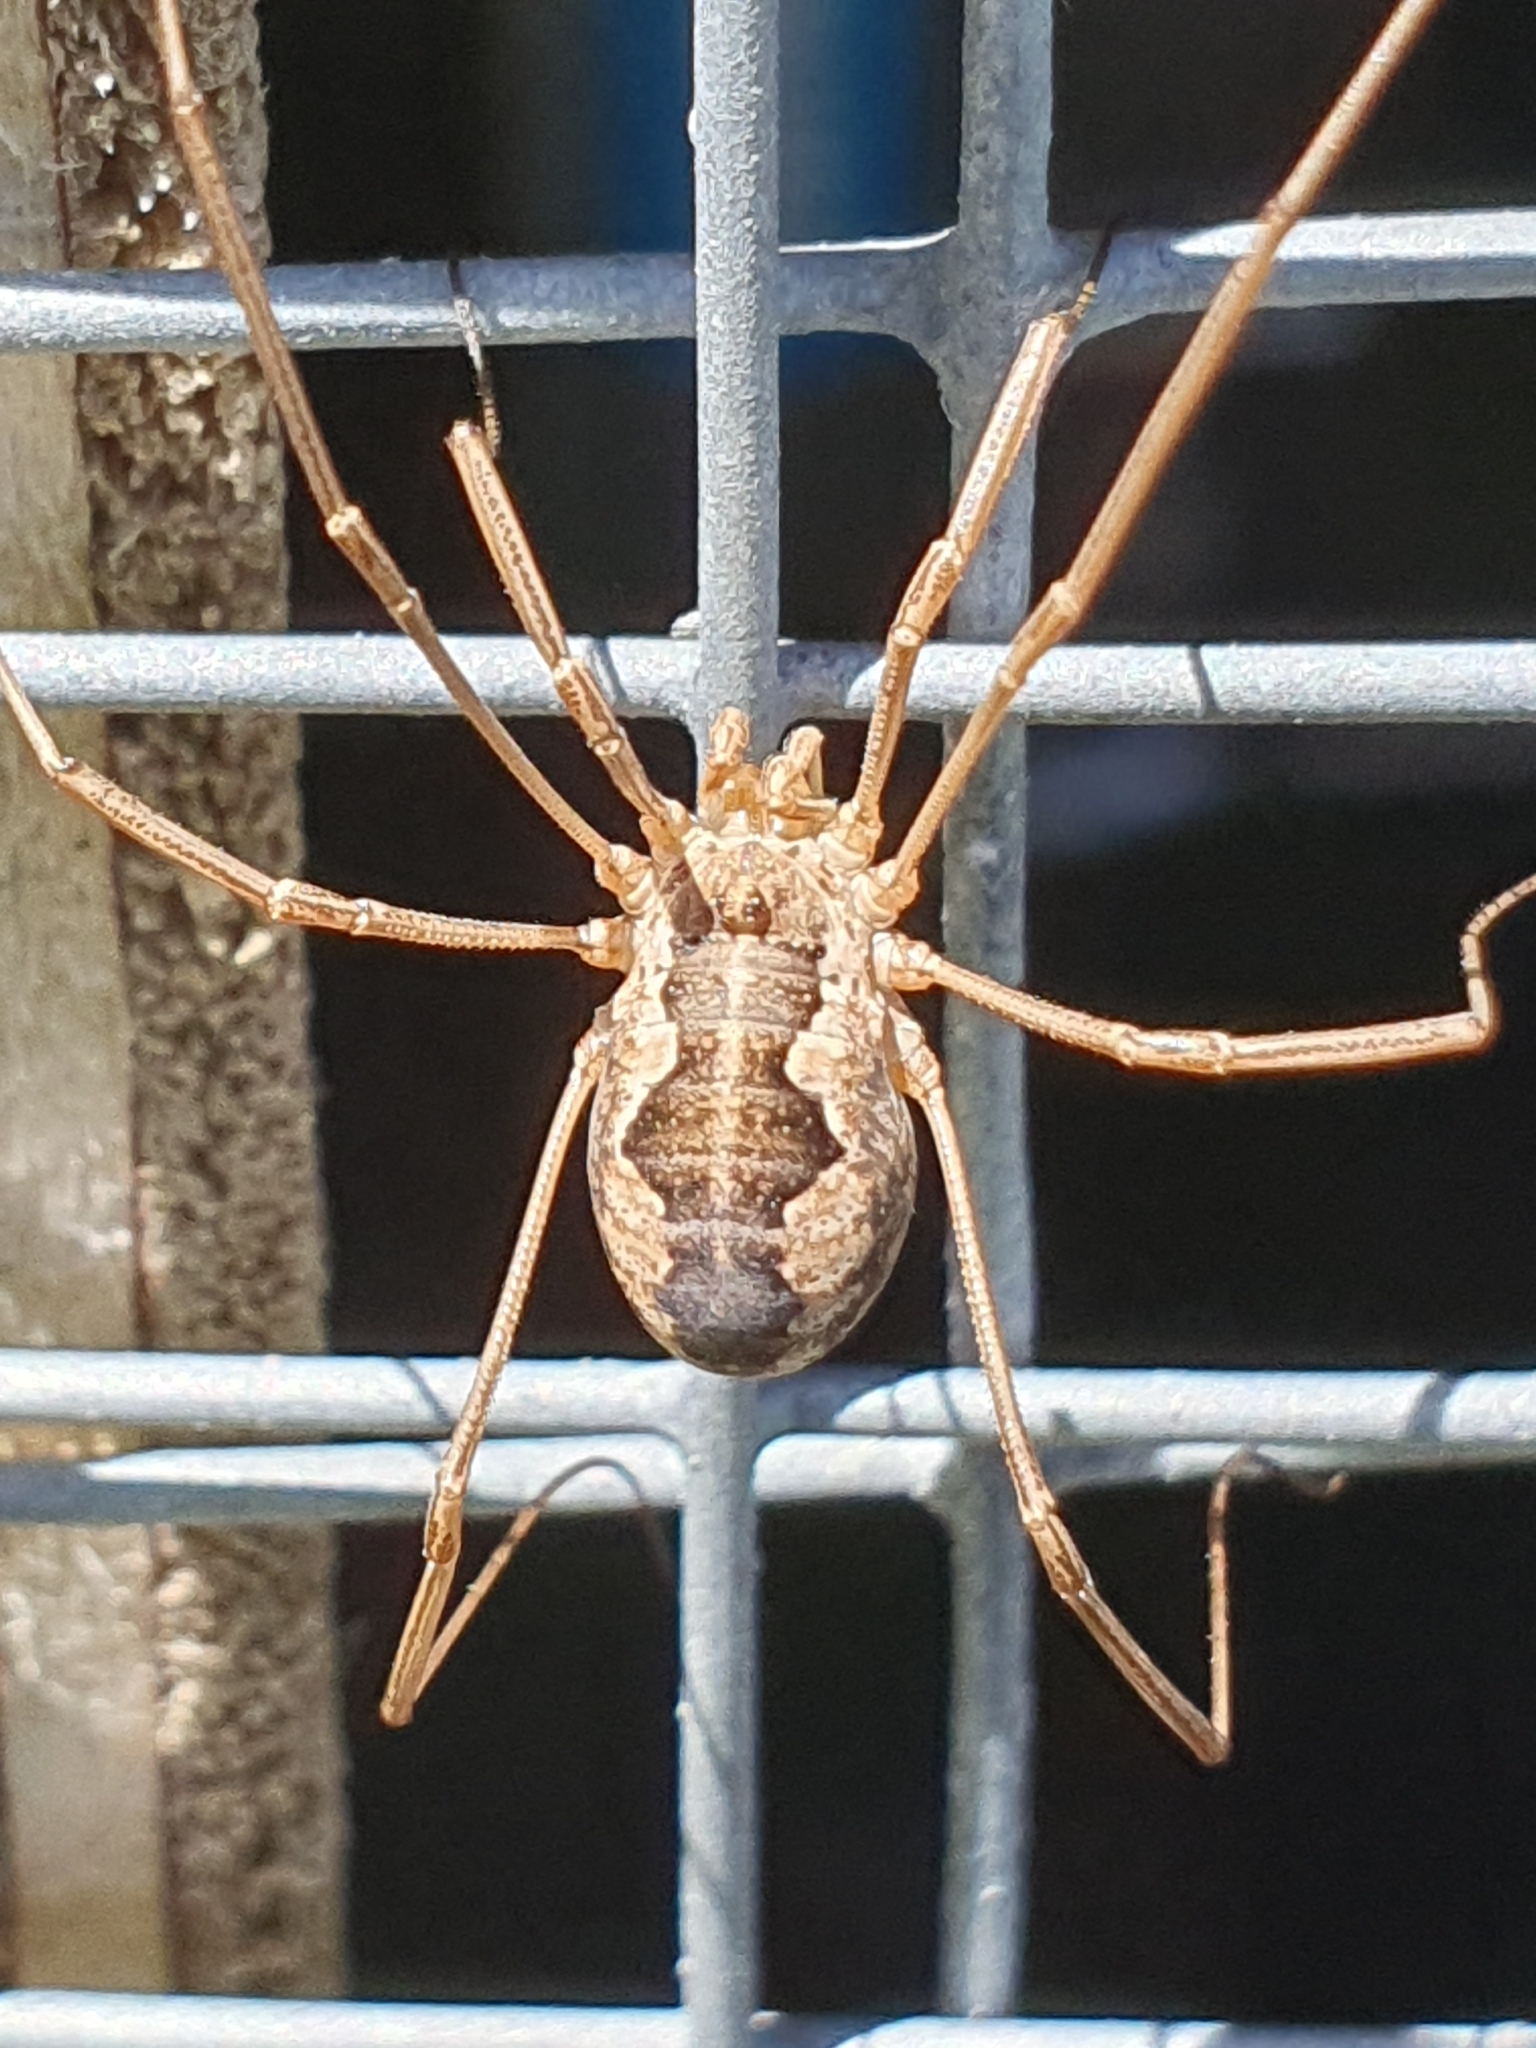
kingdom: Animalia
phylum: Arthropoda
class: Arachnida
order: Opiliones
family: Phalangiidae
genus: Phalangium
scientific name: Phalangium opilio
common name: Daddy longleg
